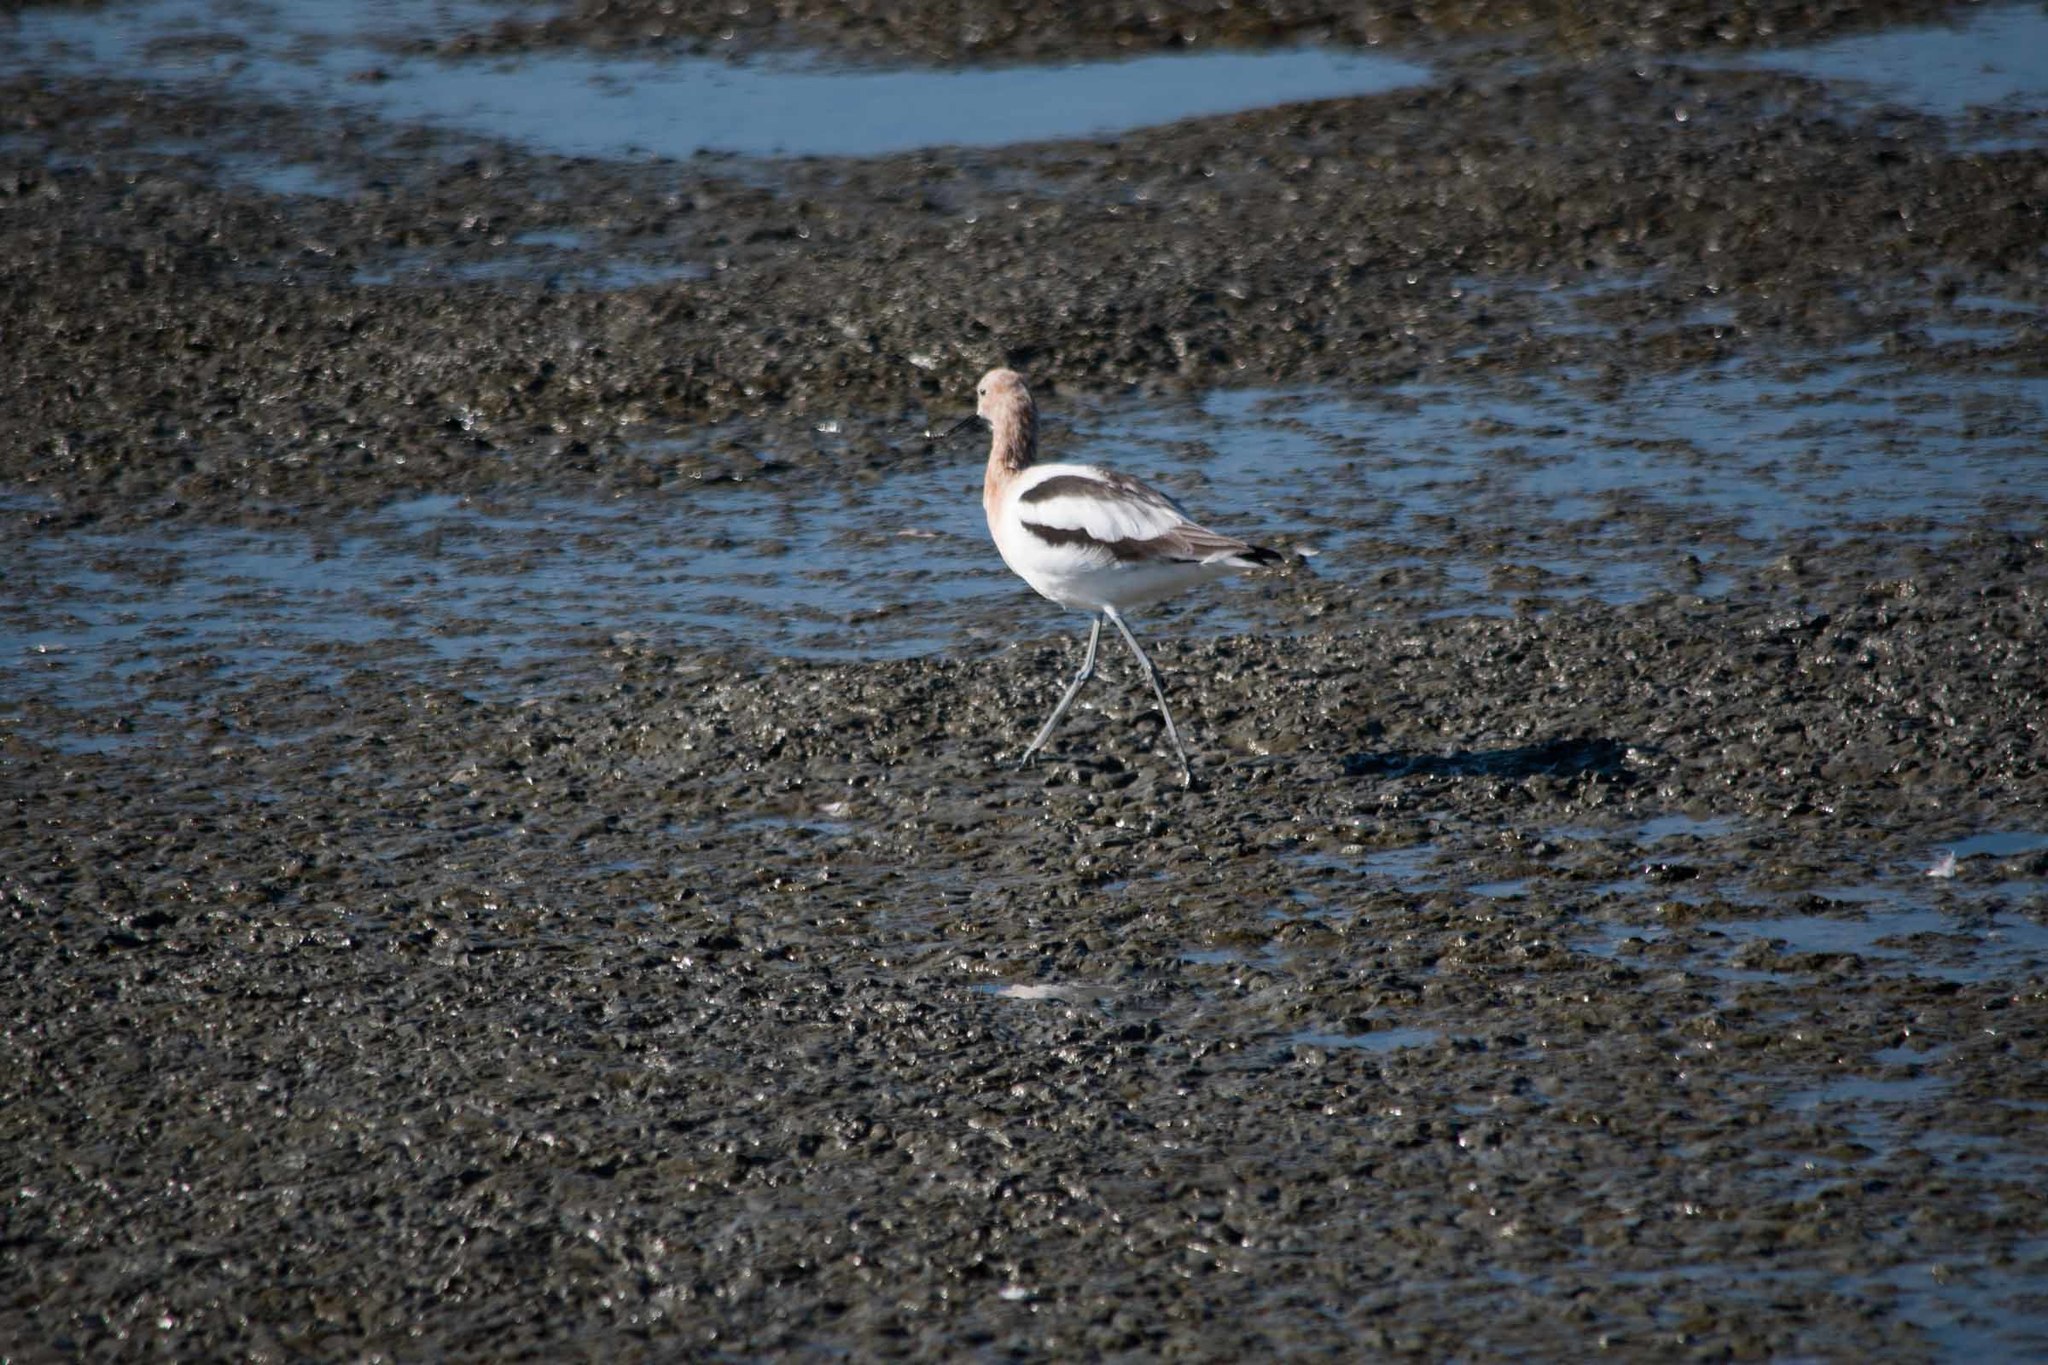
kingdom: Animalia
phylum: Chordata
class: Aves
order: Charadriiformes
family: Recurvirostridae
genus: Recurvirostra
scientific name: Recurvirostra americana
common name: American avocet
